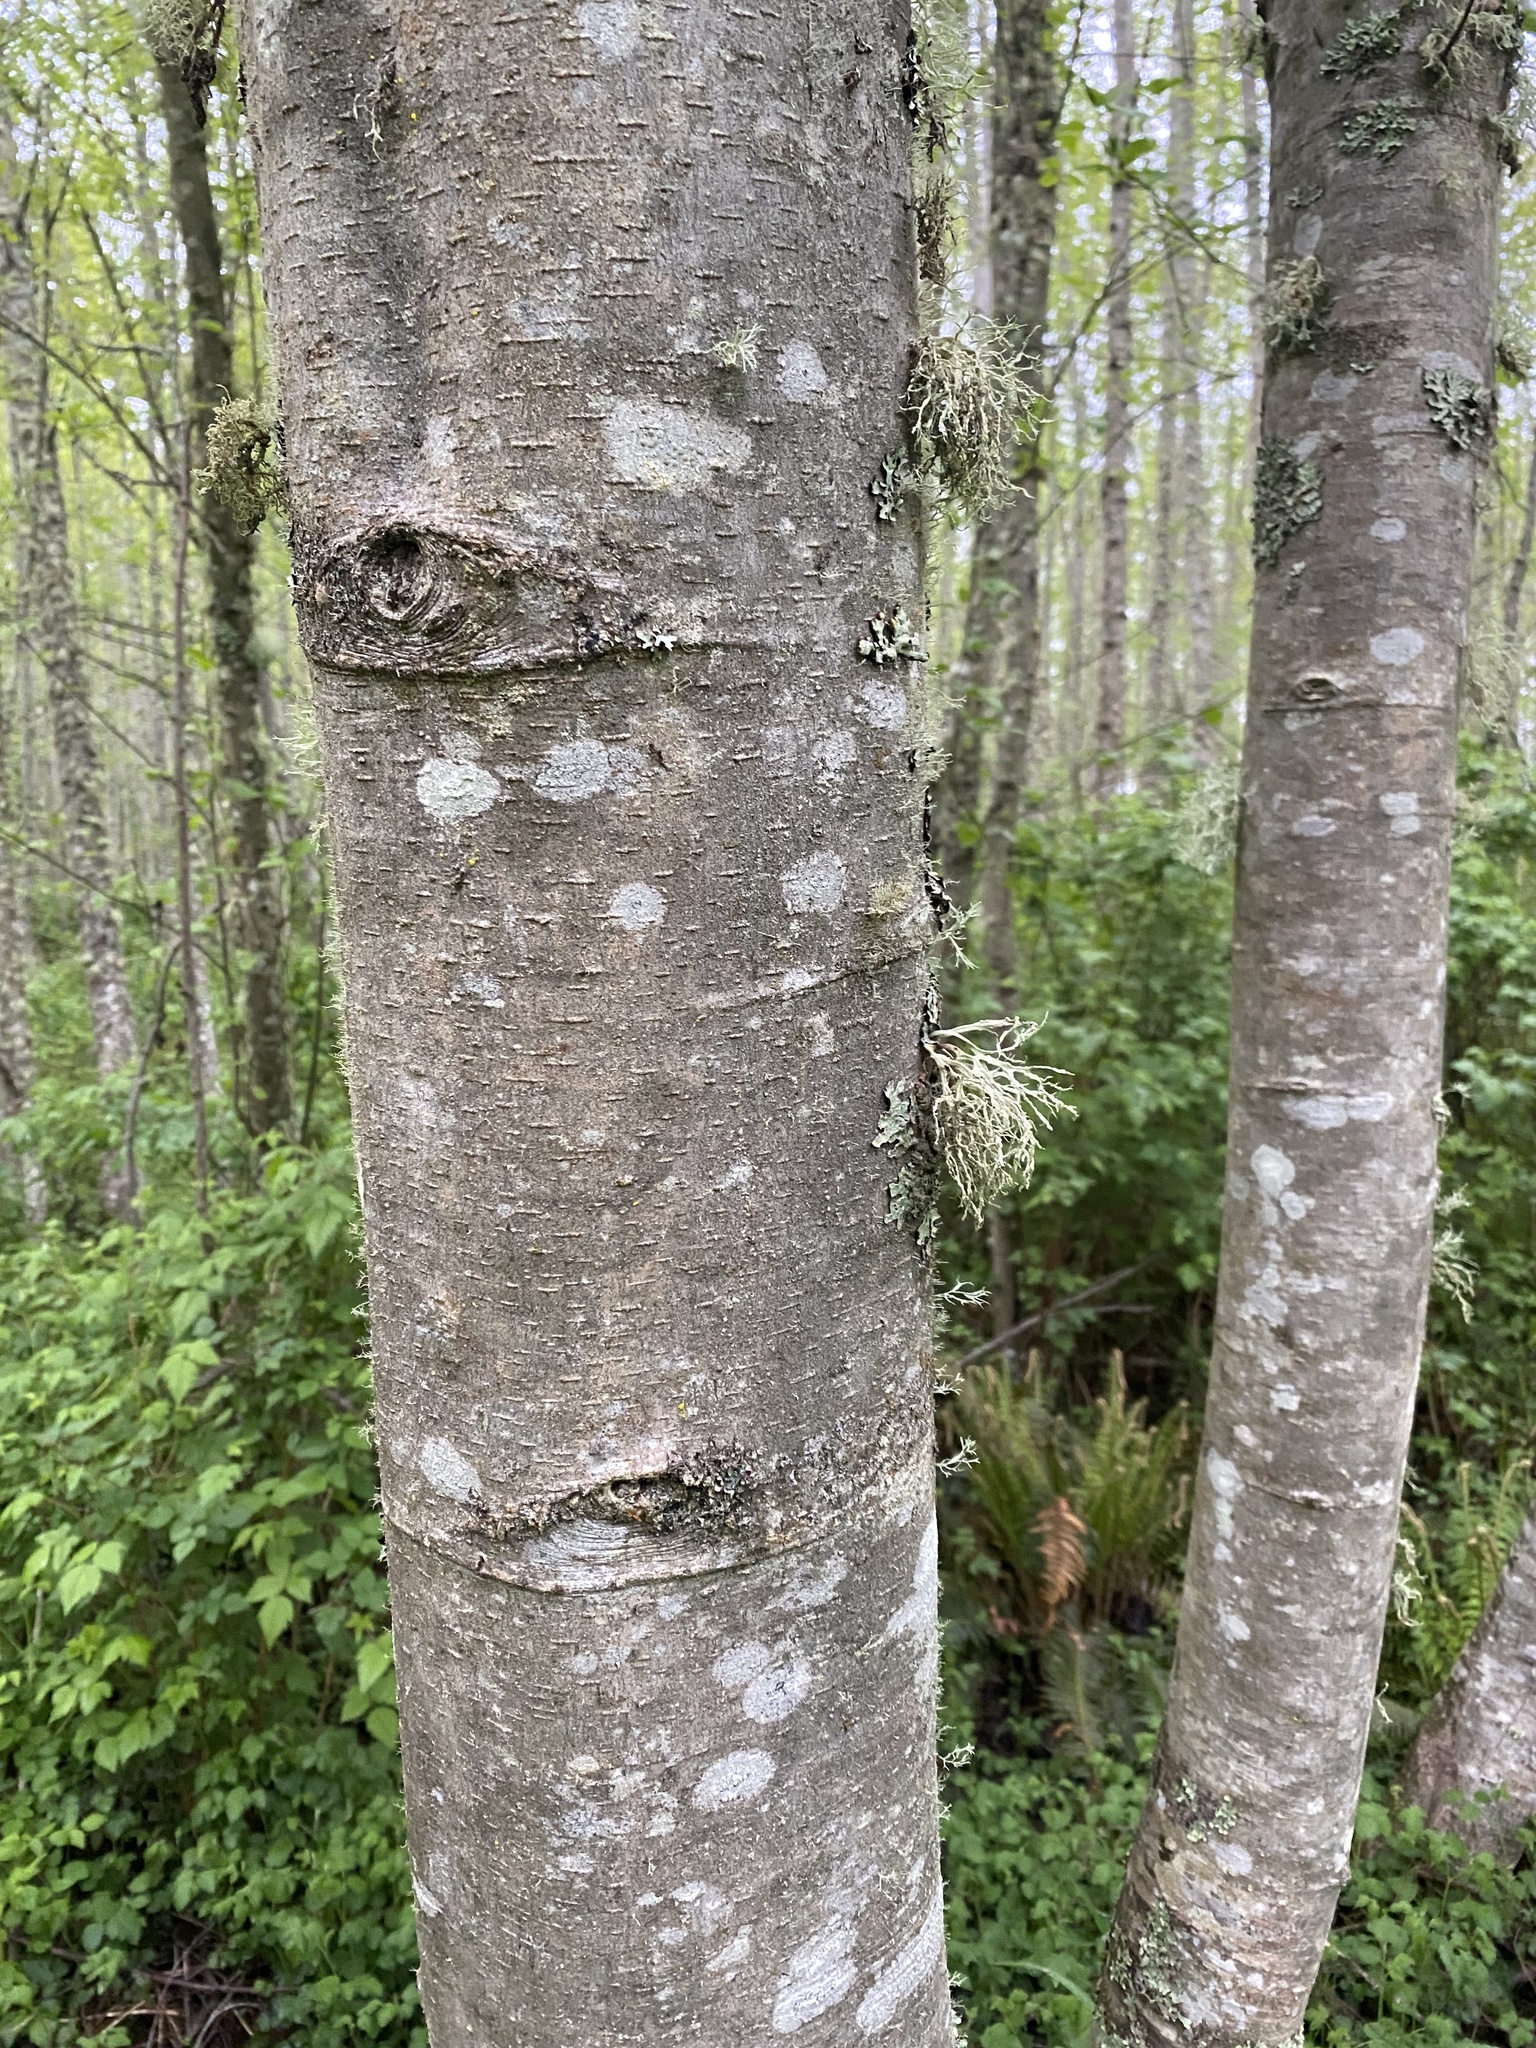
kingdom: Plantae
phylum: Tracheophyta
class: Magnoliopsida
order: Fagales
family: Betulaceae
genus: Alnus
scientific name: Alnus rubra
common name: Red alder
